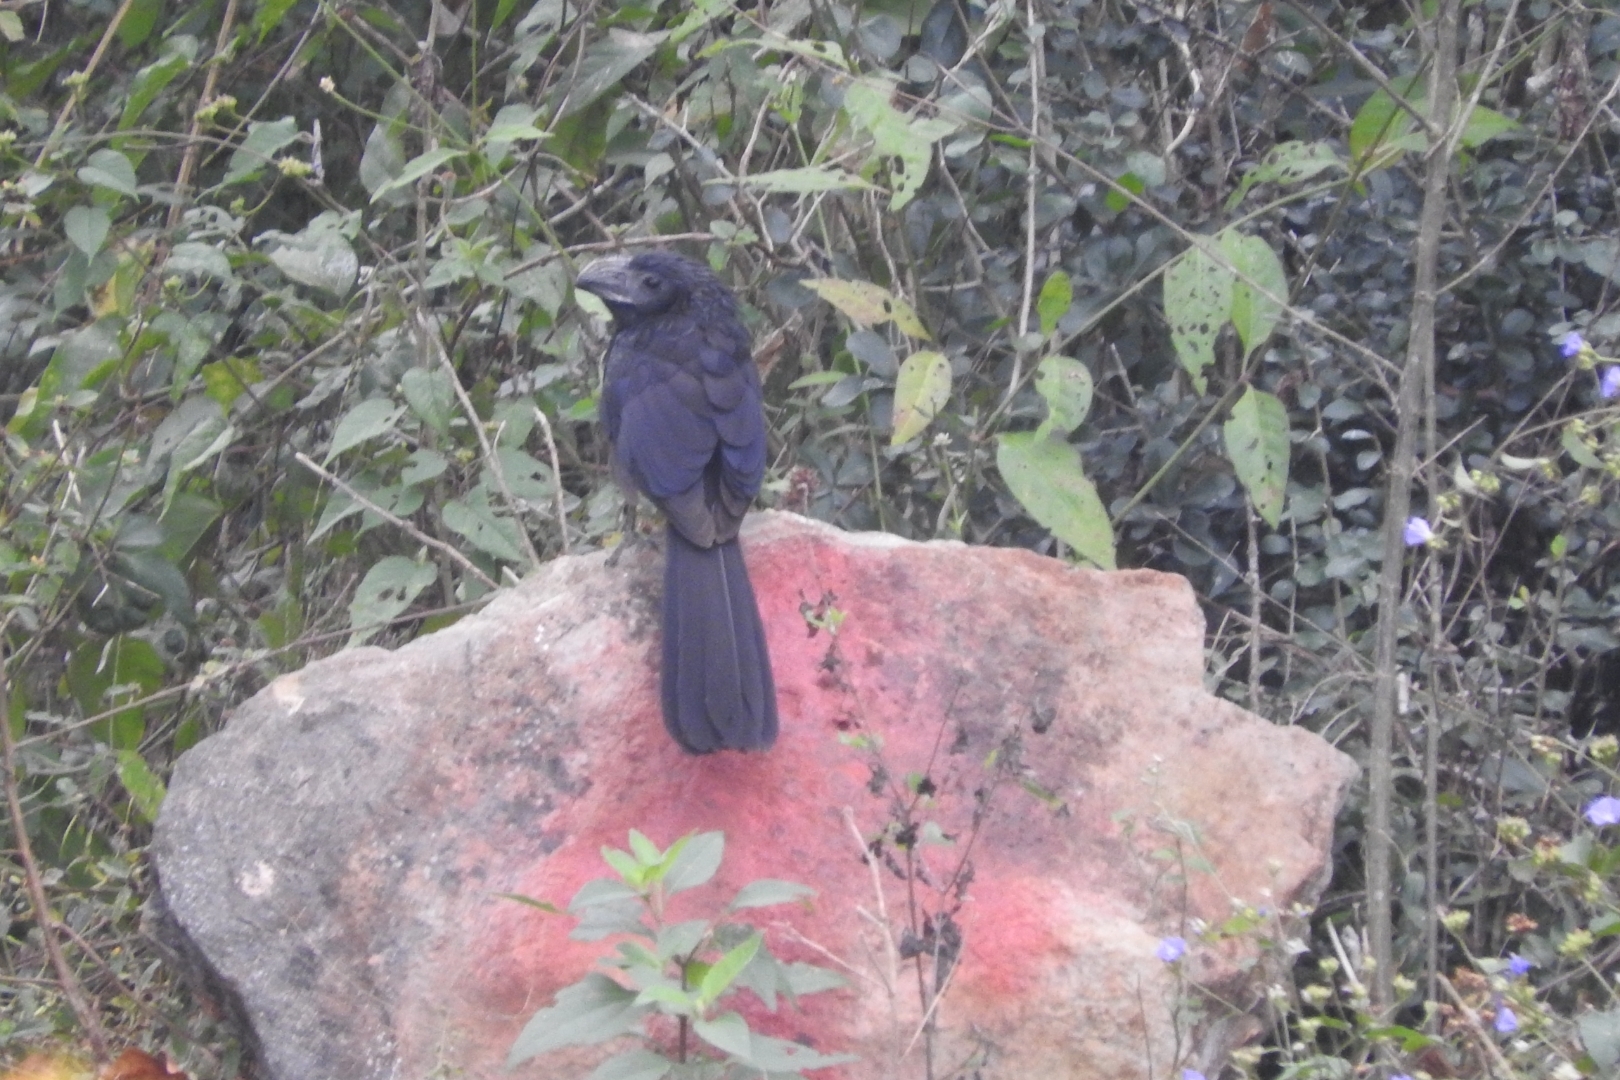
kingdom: Animalia
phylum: Chordata
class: Aves
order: Cuculiformes
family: Cuculidae
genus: Crotophaga
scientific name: Crotophaga sulcirostris
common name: Groove-billed ani
